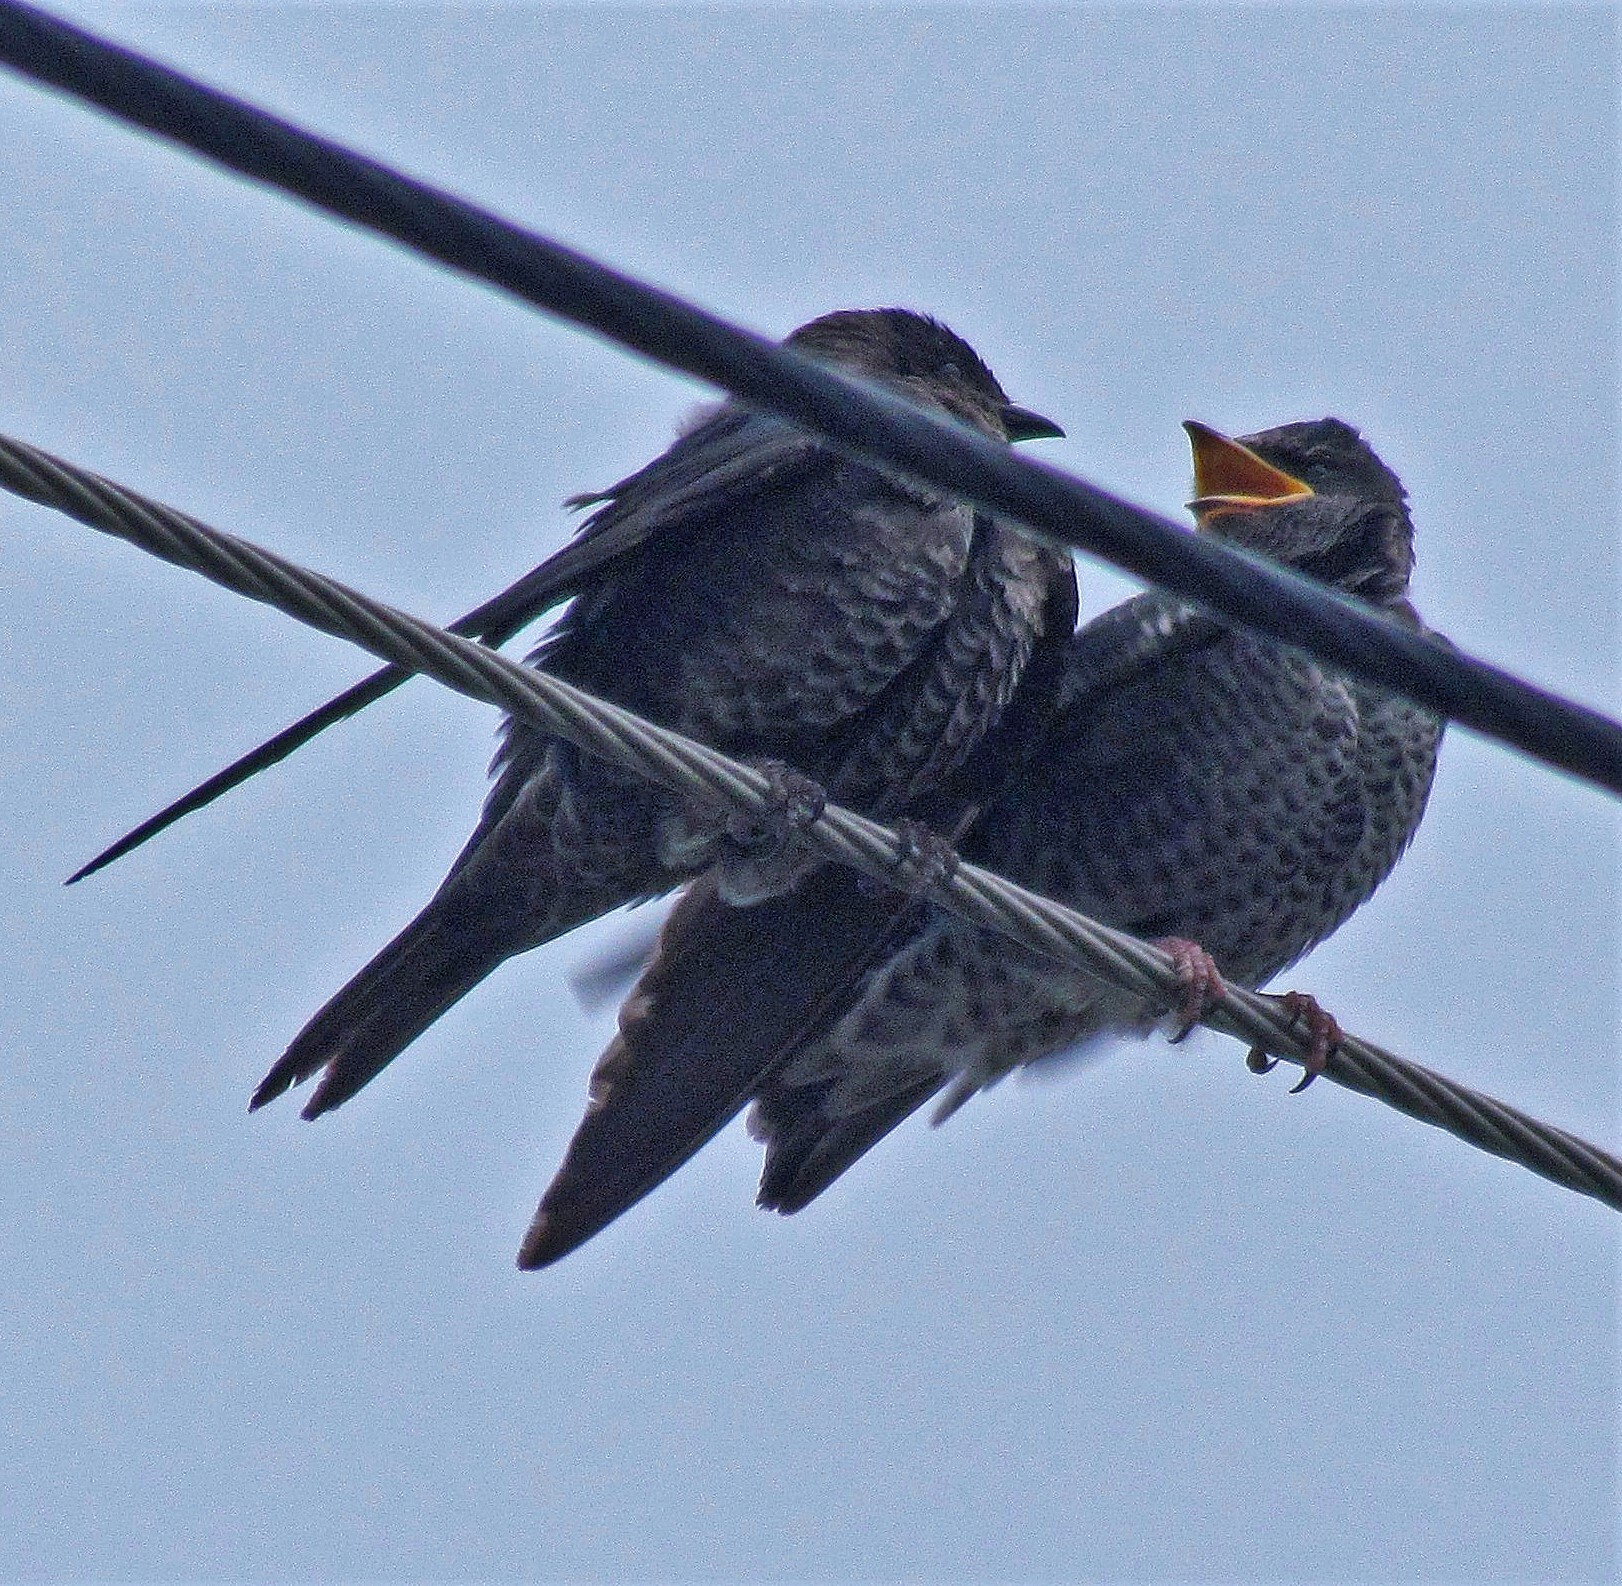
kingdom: Animalia
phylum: Chordata
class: Aves
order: Passeriformes
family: Hirundinidae
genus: Progne
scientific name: Progne elegans
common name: Southern martin
